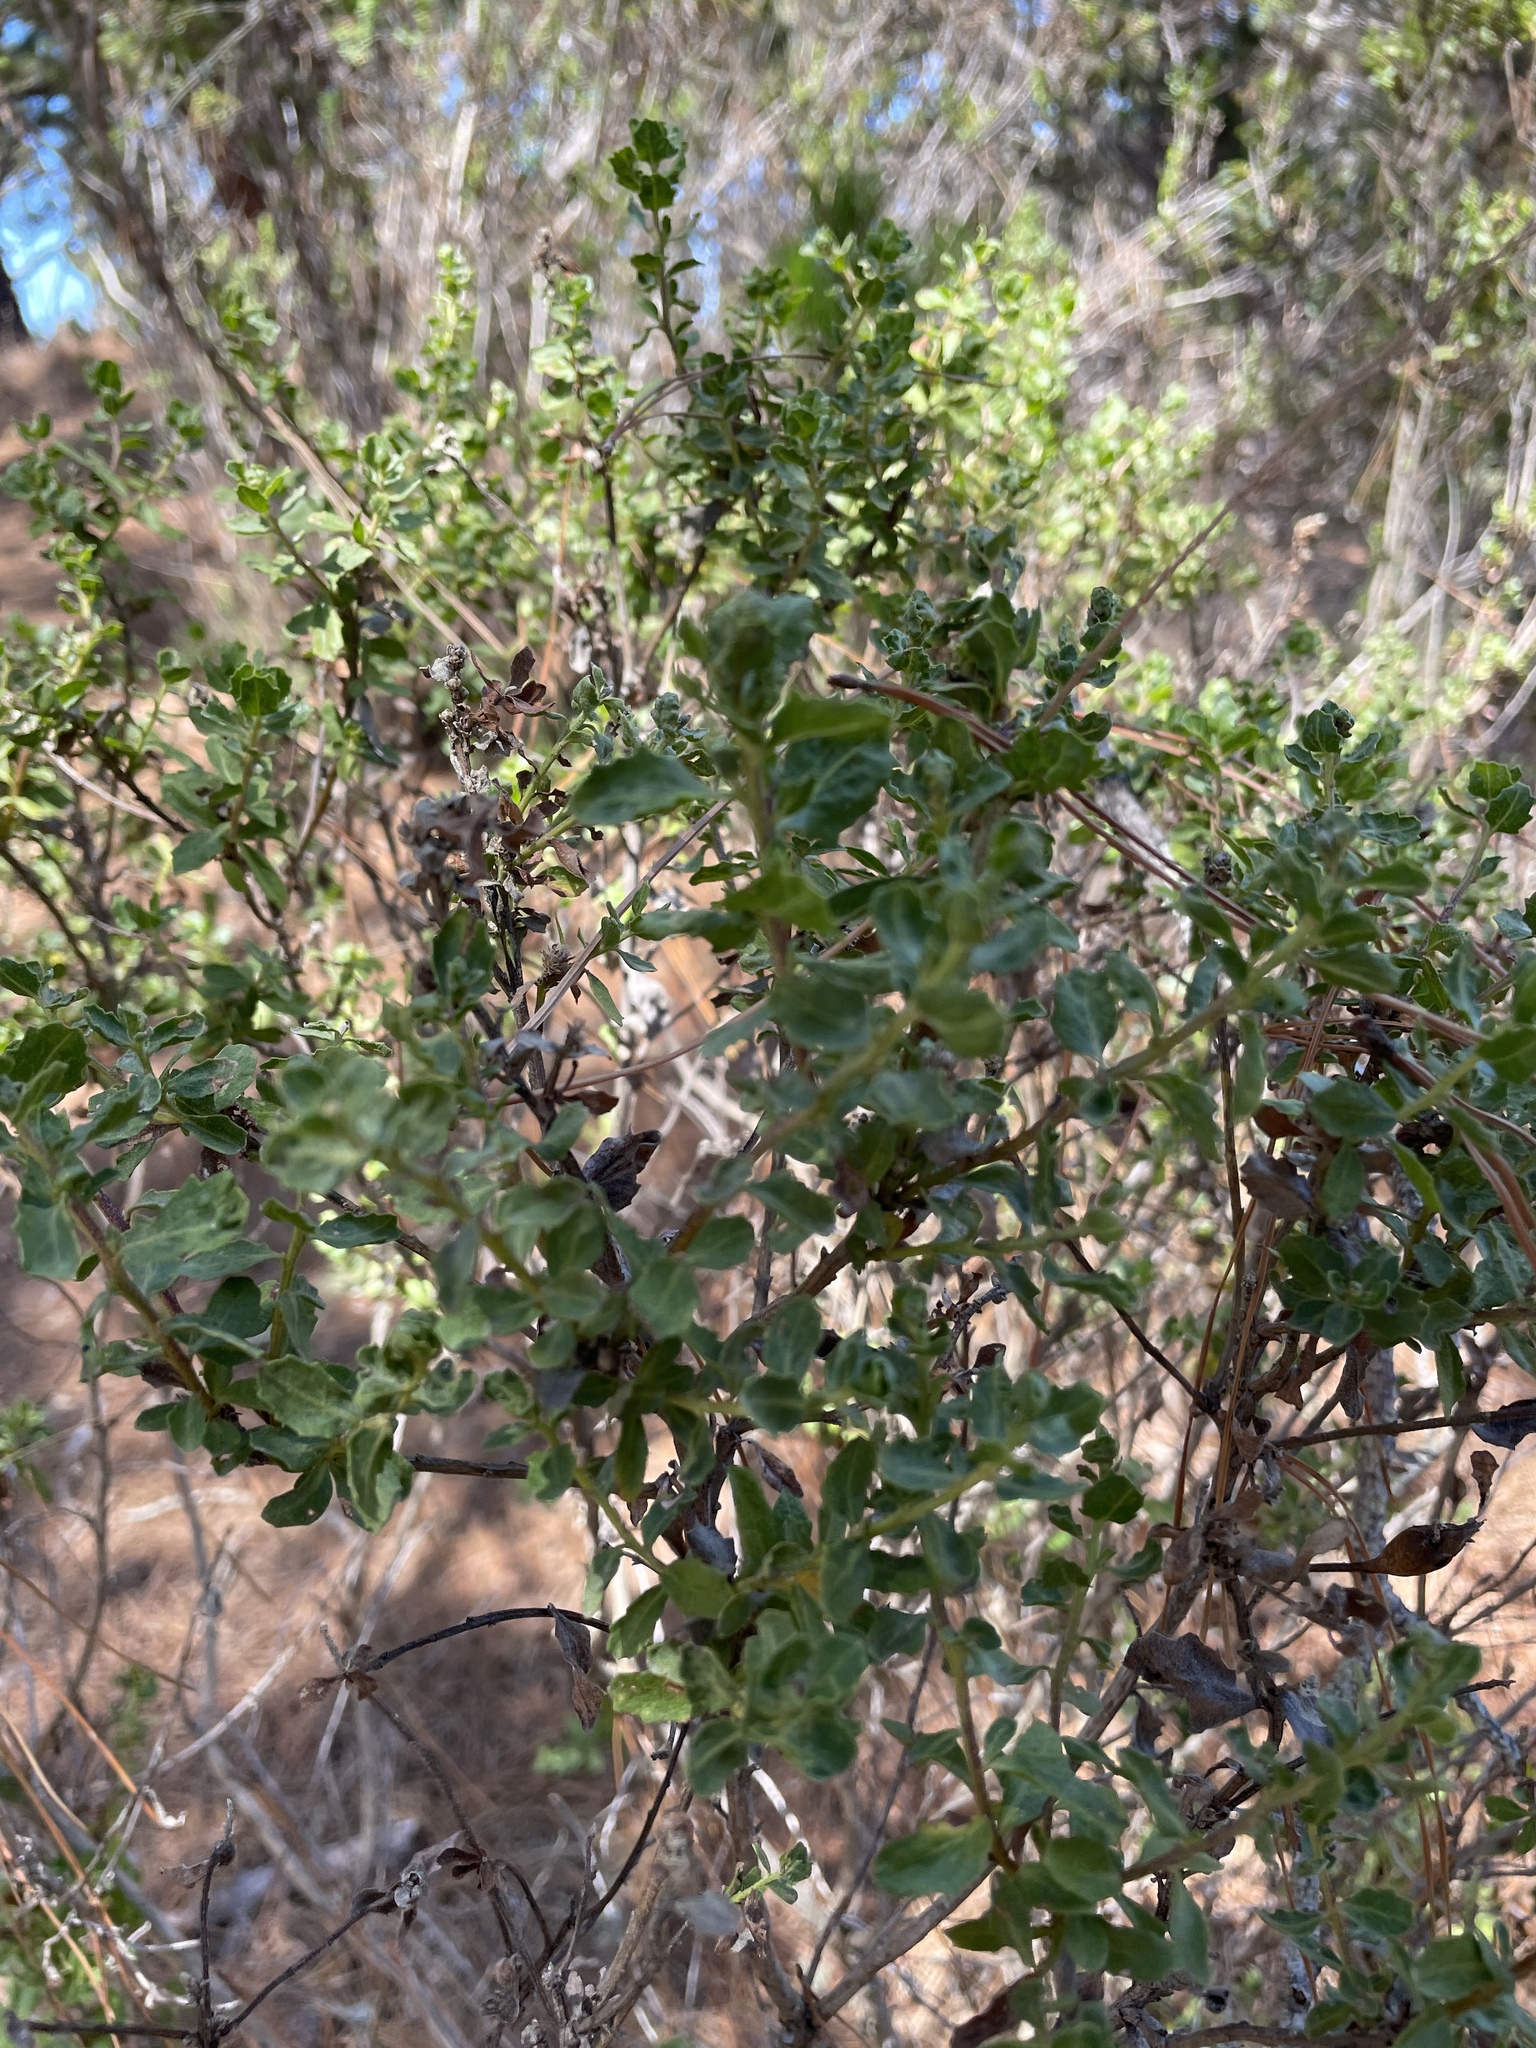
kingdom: Plantae
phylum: Tracheophyta
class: Magnoliopsida
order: Asterales
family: Asteraceae
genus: Baccharis
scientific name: Baccharis pilularis
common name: Coyotebrush
